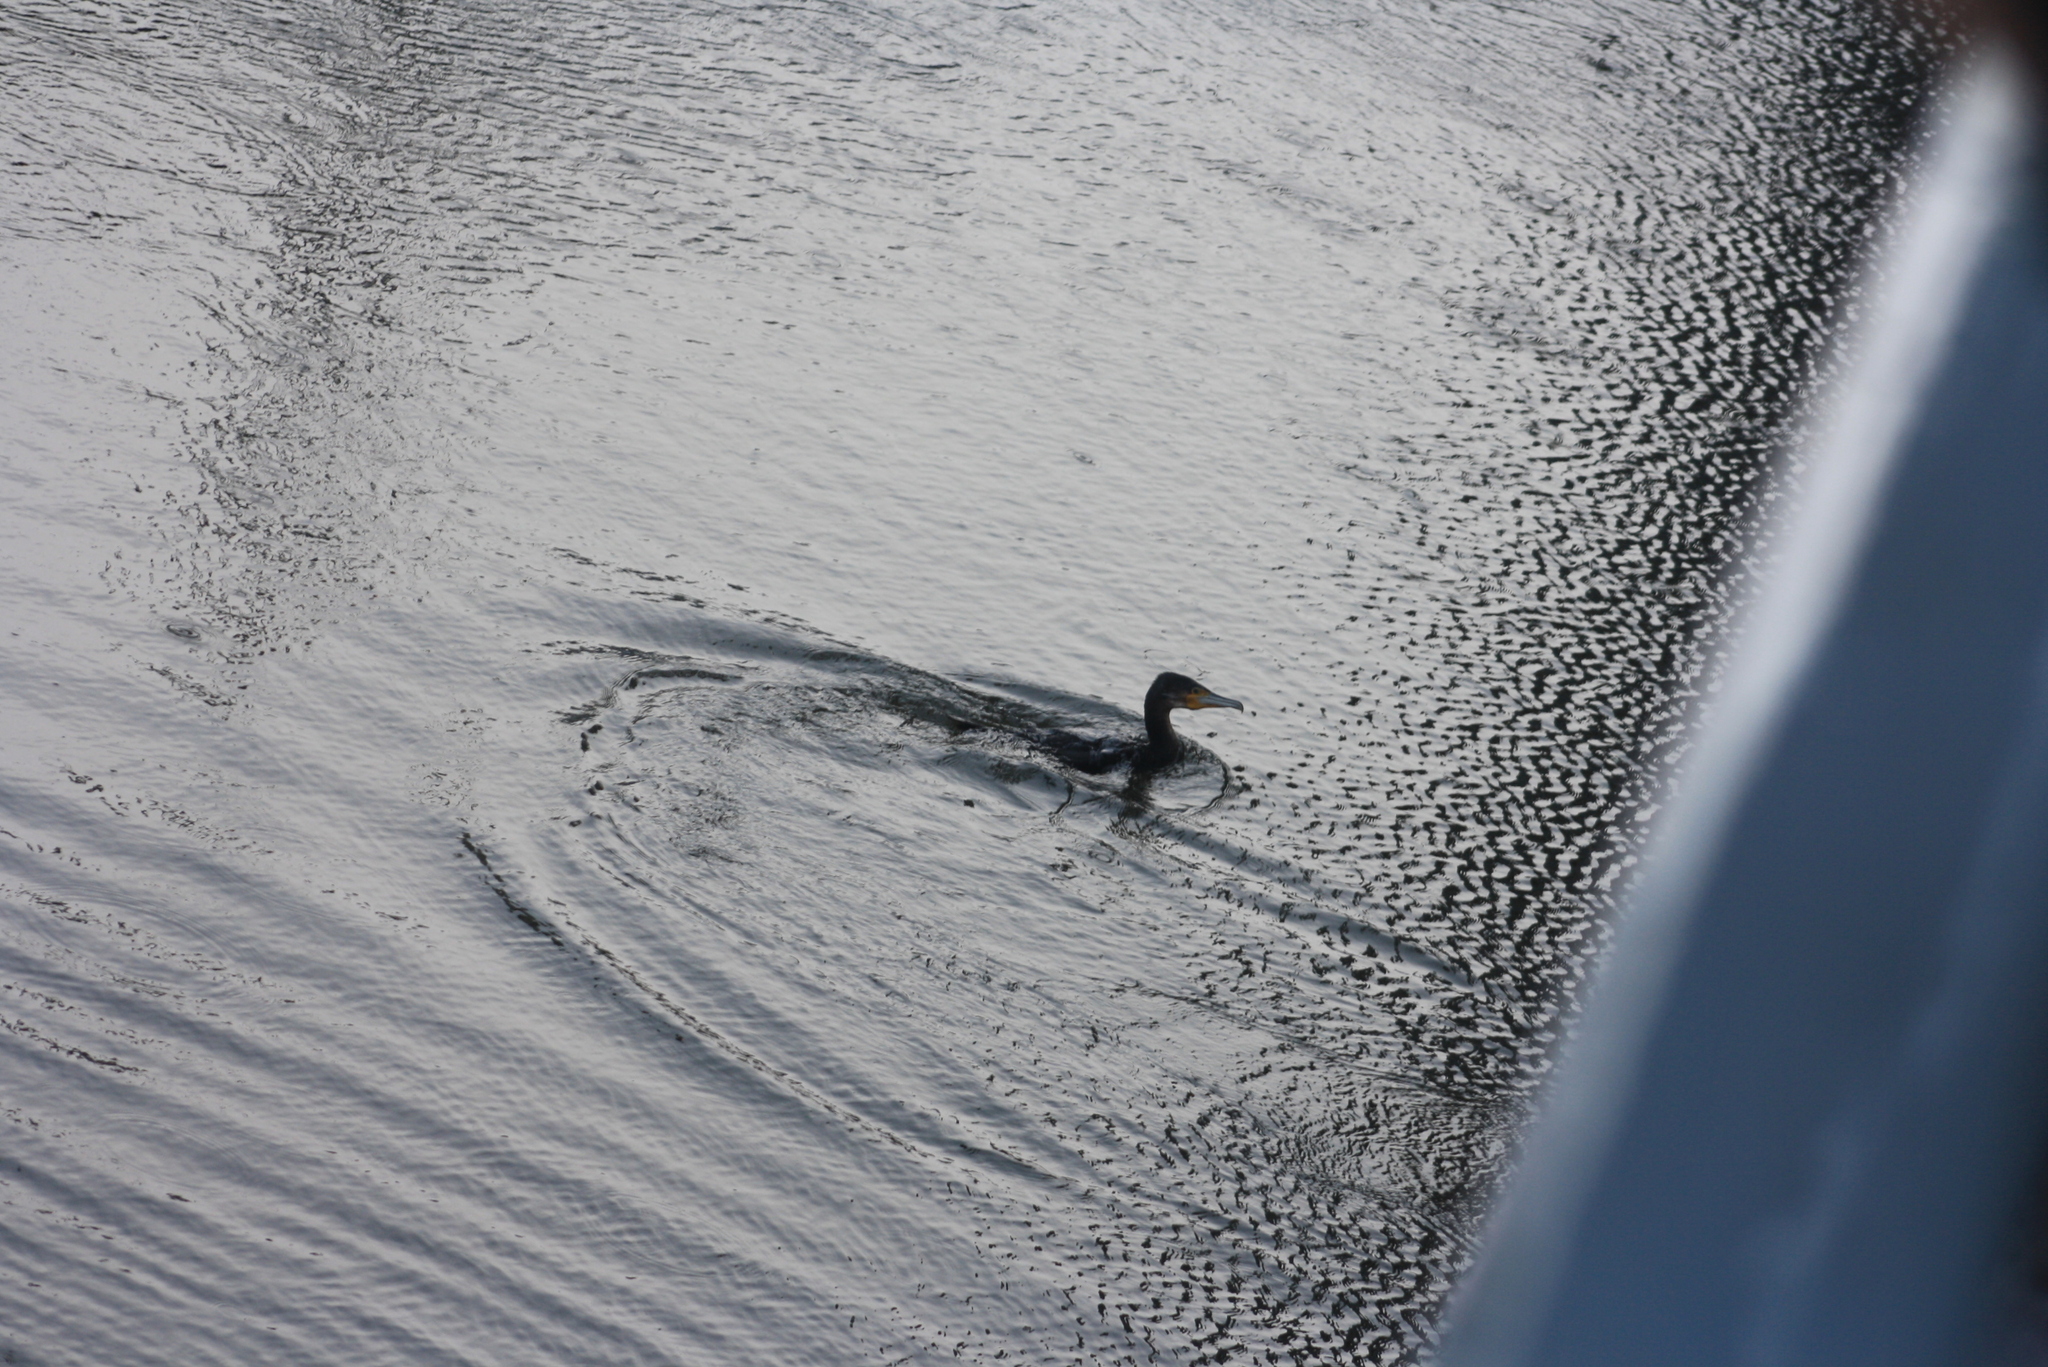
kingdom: Animalia
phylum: Chordata
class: Aves
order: Suliformes
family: Phalacrocoracidae
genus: Phalacrocorax
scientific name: Phalacrocorax carbo
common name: Great cormorant
